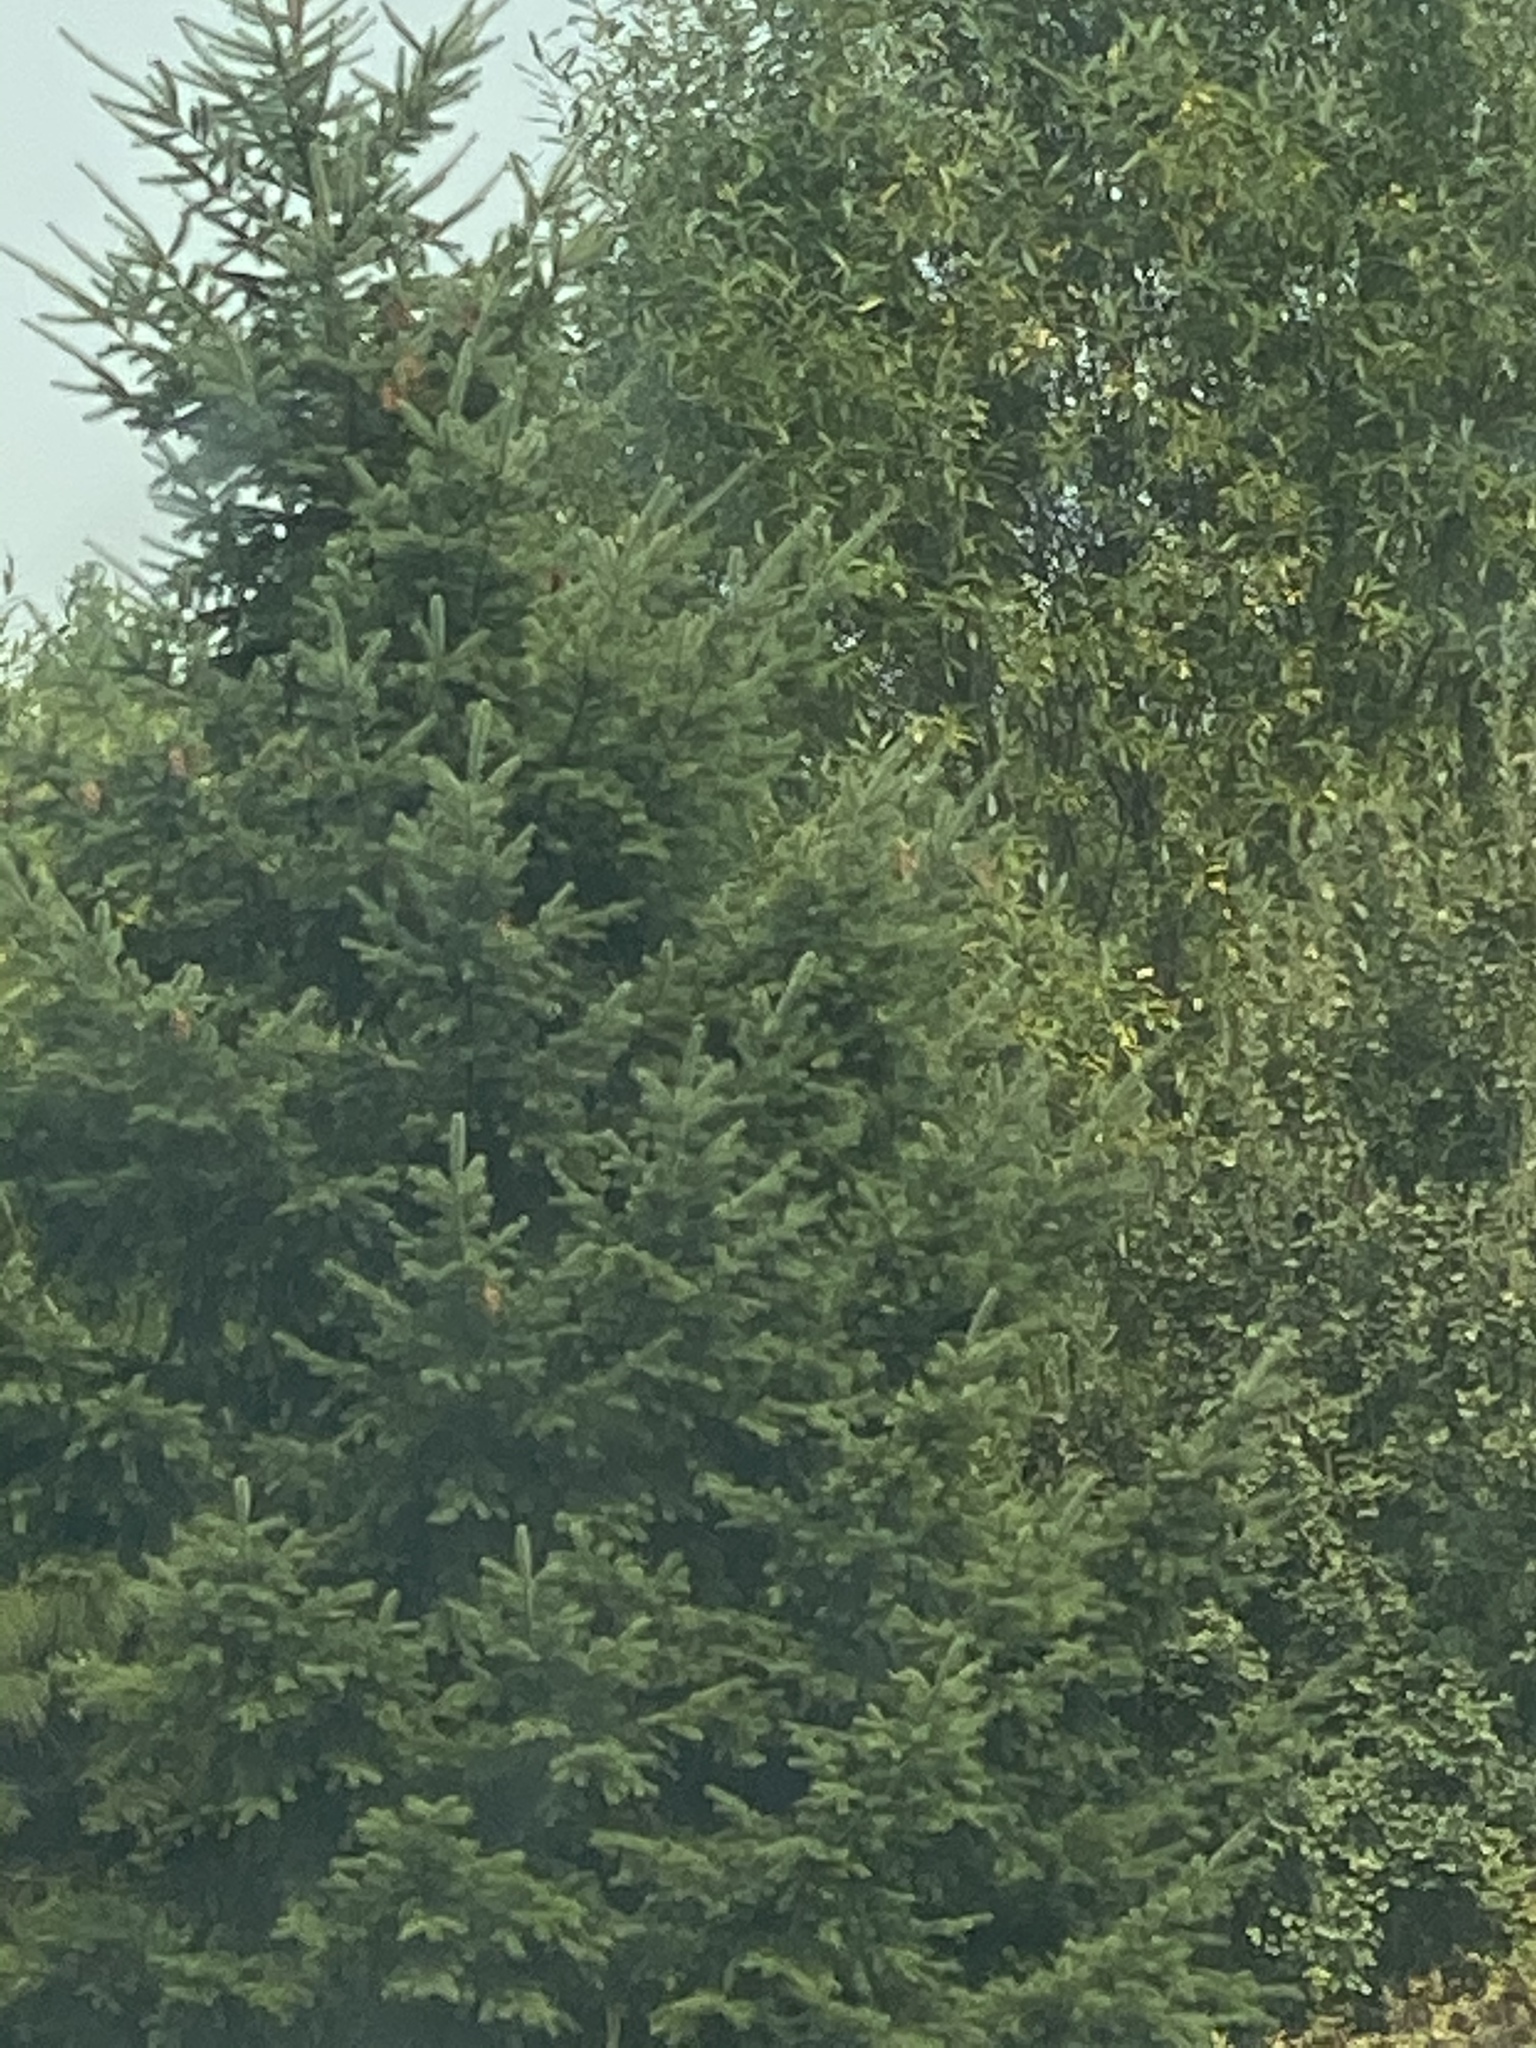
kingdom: Plantae
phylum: Tracheophyta
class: Pinopsida
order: Pinales
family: Pinaceae
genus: Pseudotsuga
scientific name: Pseudotsuga menziesii
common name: Douglas fir
